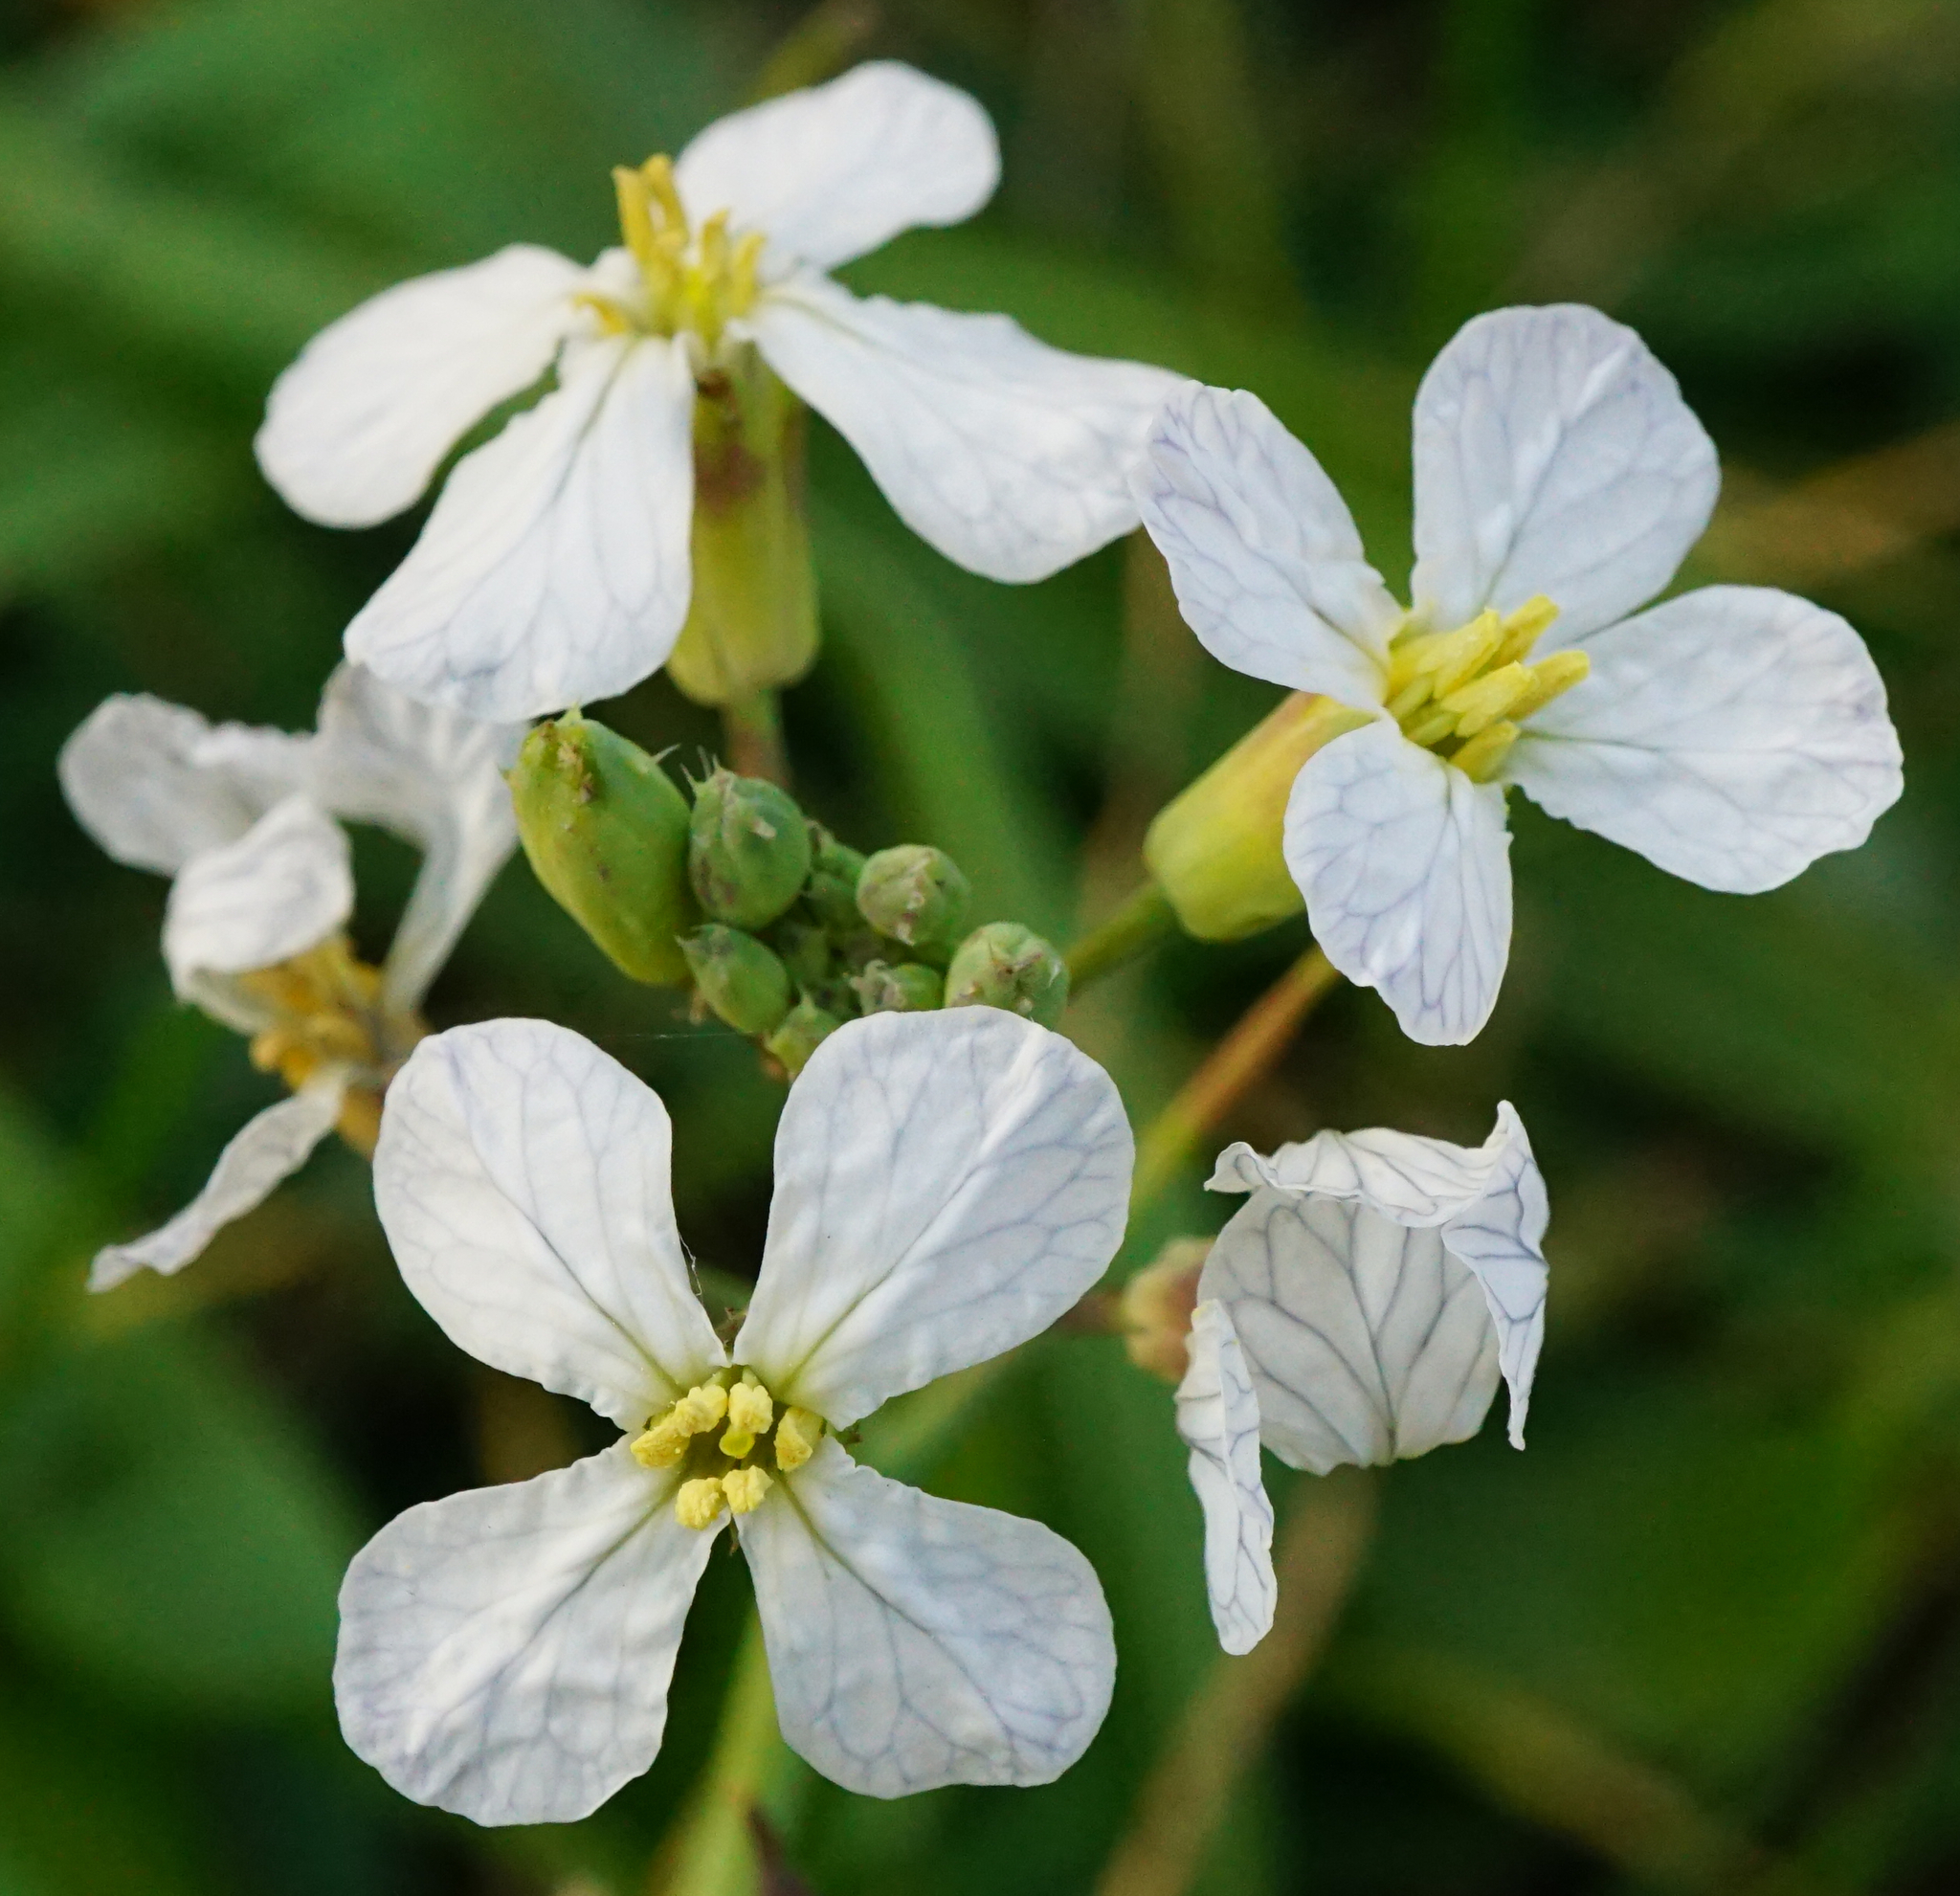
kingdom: Plantae
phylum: Tracheophyta
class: Magnoliopsida
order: Brassicales
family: Brassicaceae
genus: Raphanus
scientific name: Raphanus sativus
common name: Cultivated radish
